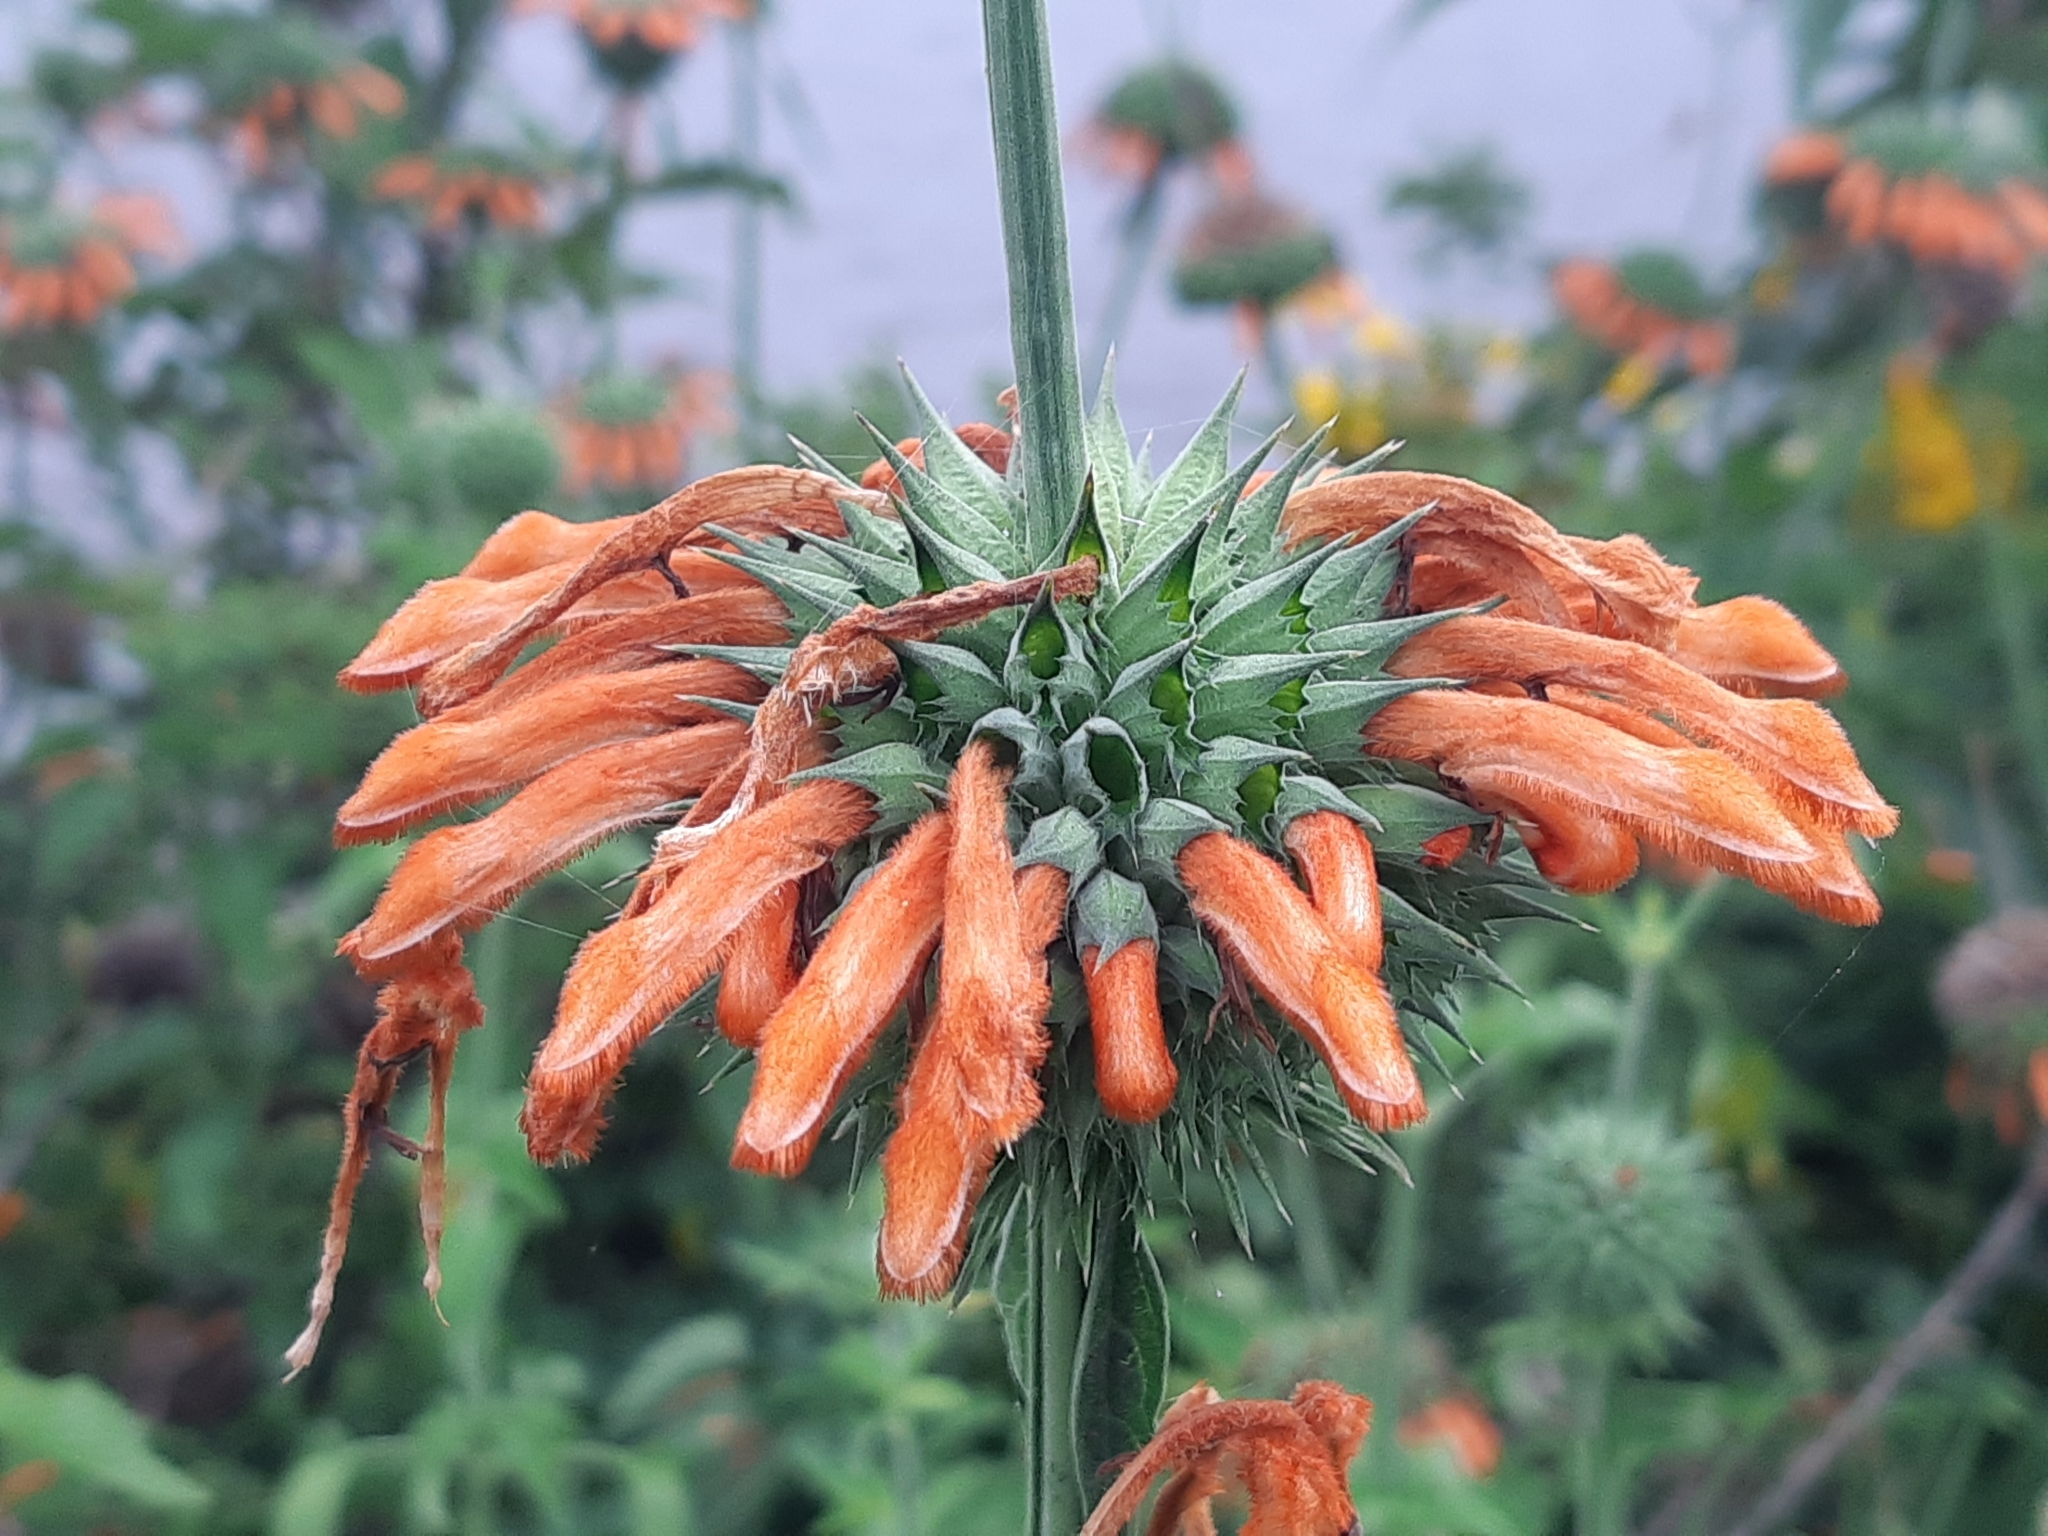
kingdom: Plantae
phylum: Tracheophyta
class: Magnoliopsida
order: Lamiales
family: Lamiaceae
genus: Leonotis
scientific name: Leonotis nepetifolia
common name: Christmas candlestick
